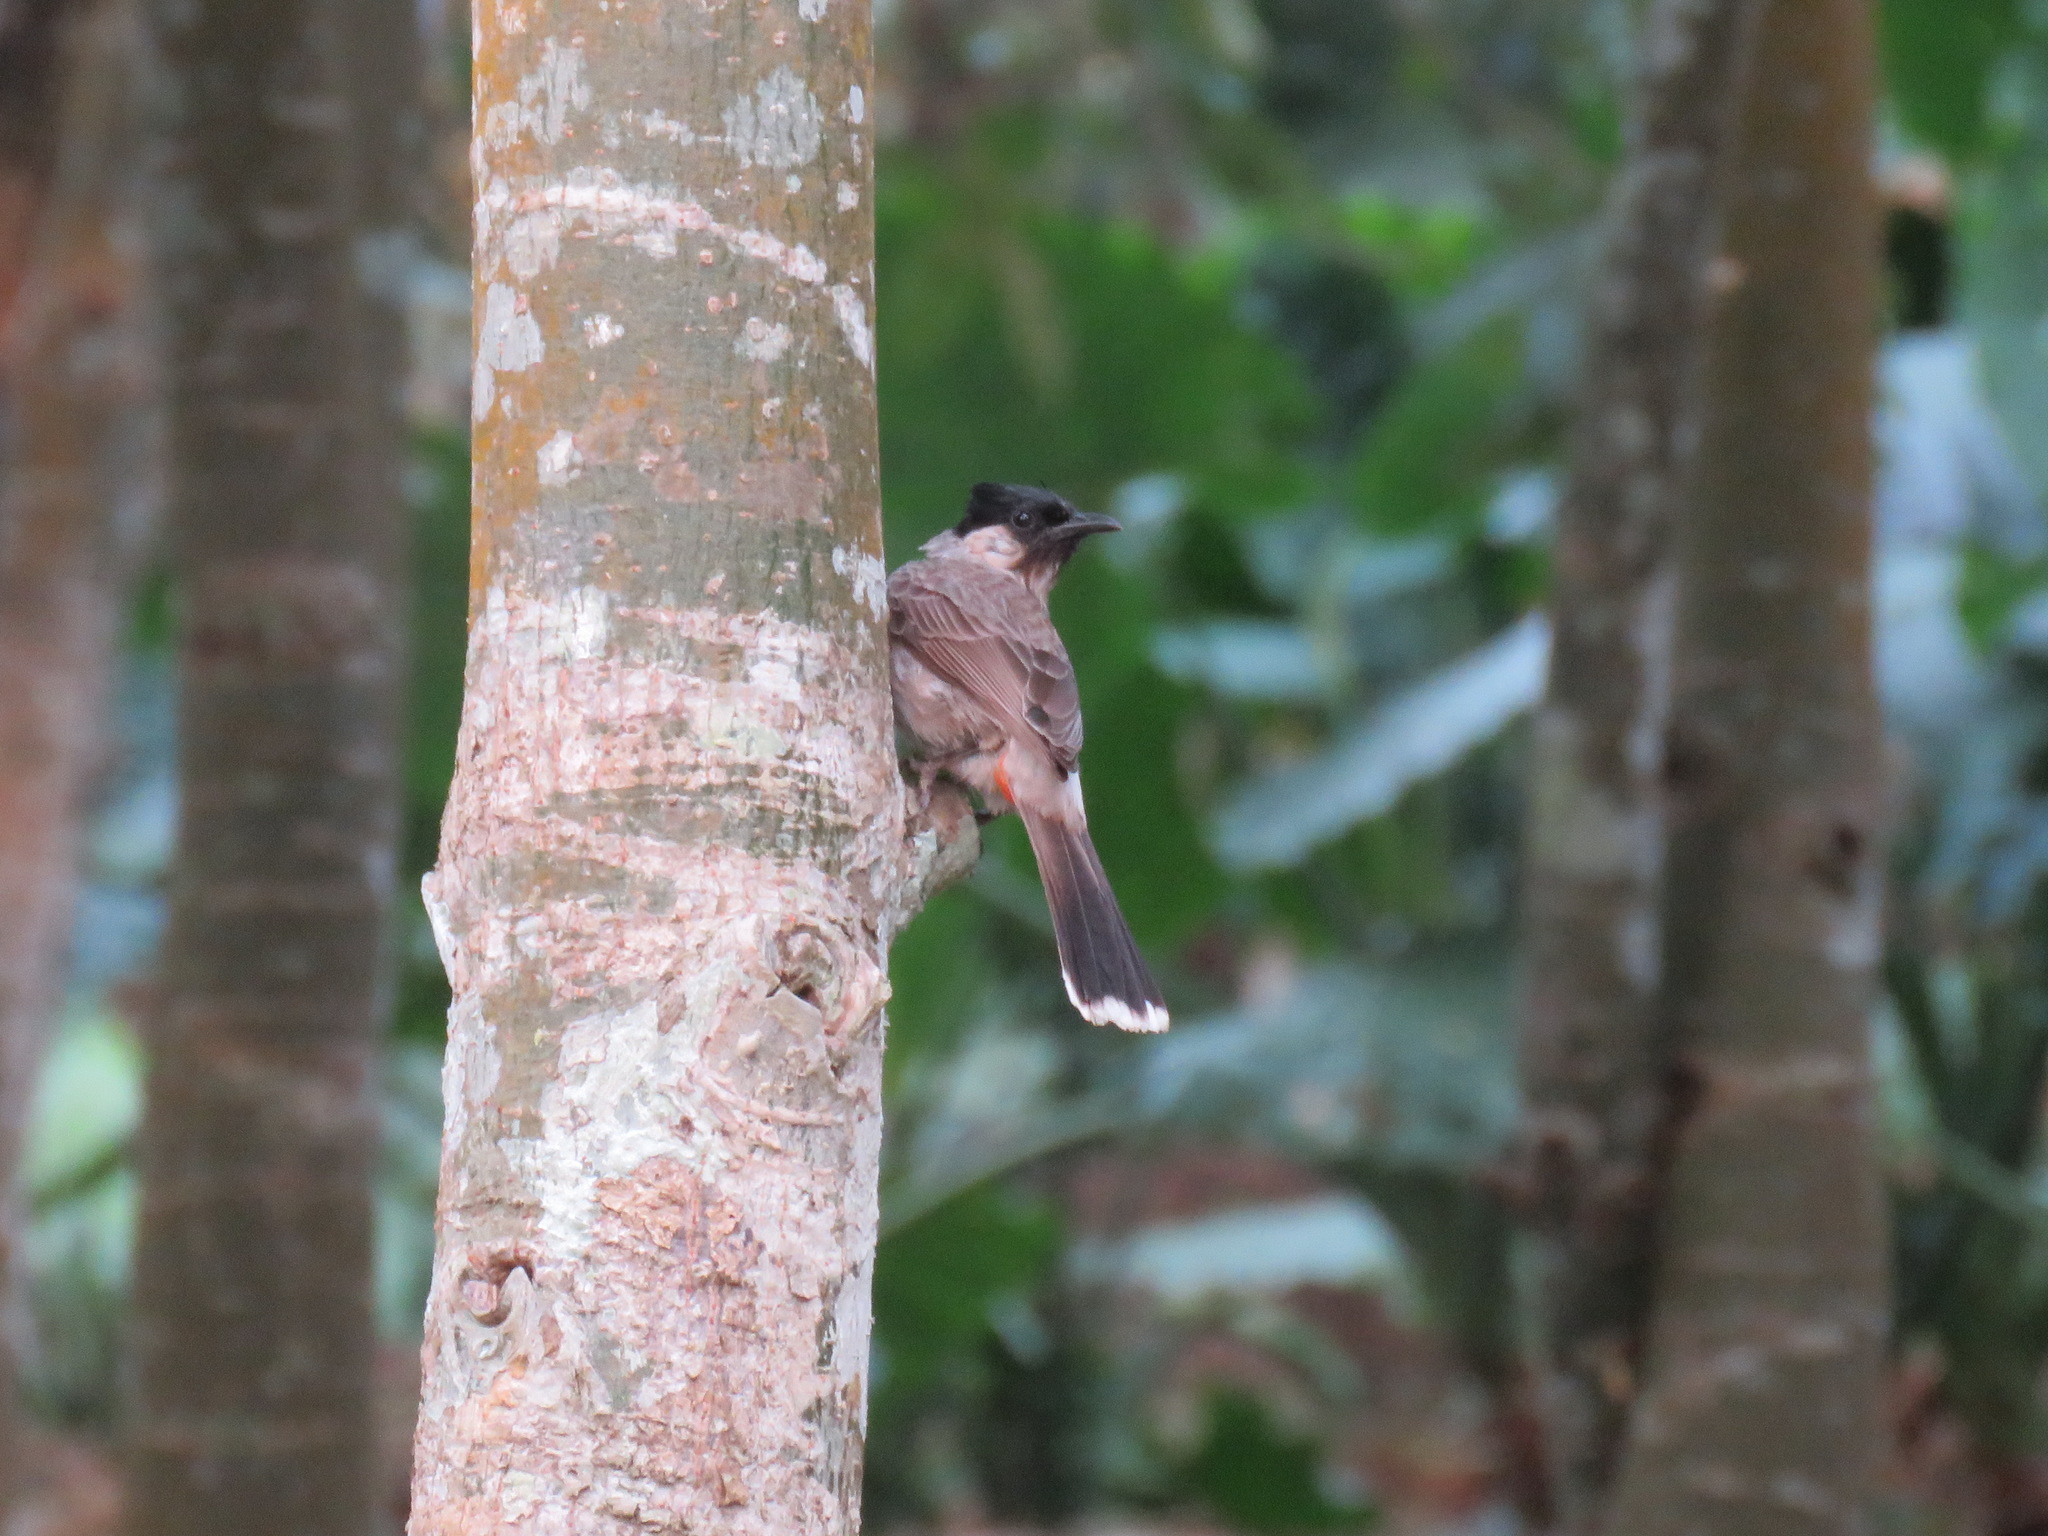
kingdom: Animalia
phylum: Chordata
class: Aves
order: Passeriformes
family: Pycnonotidae
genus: Pycnonotus
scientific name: Pycnonotus aurigaster
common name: Sooty-headed bulbul
